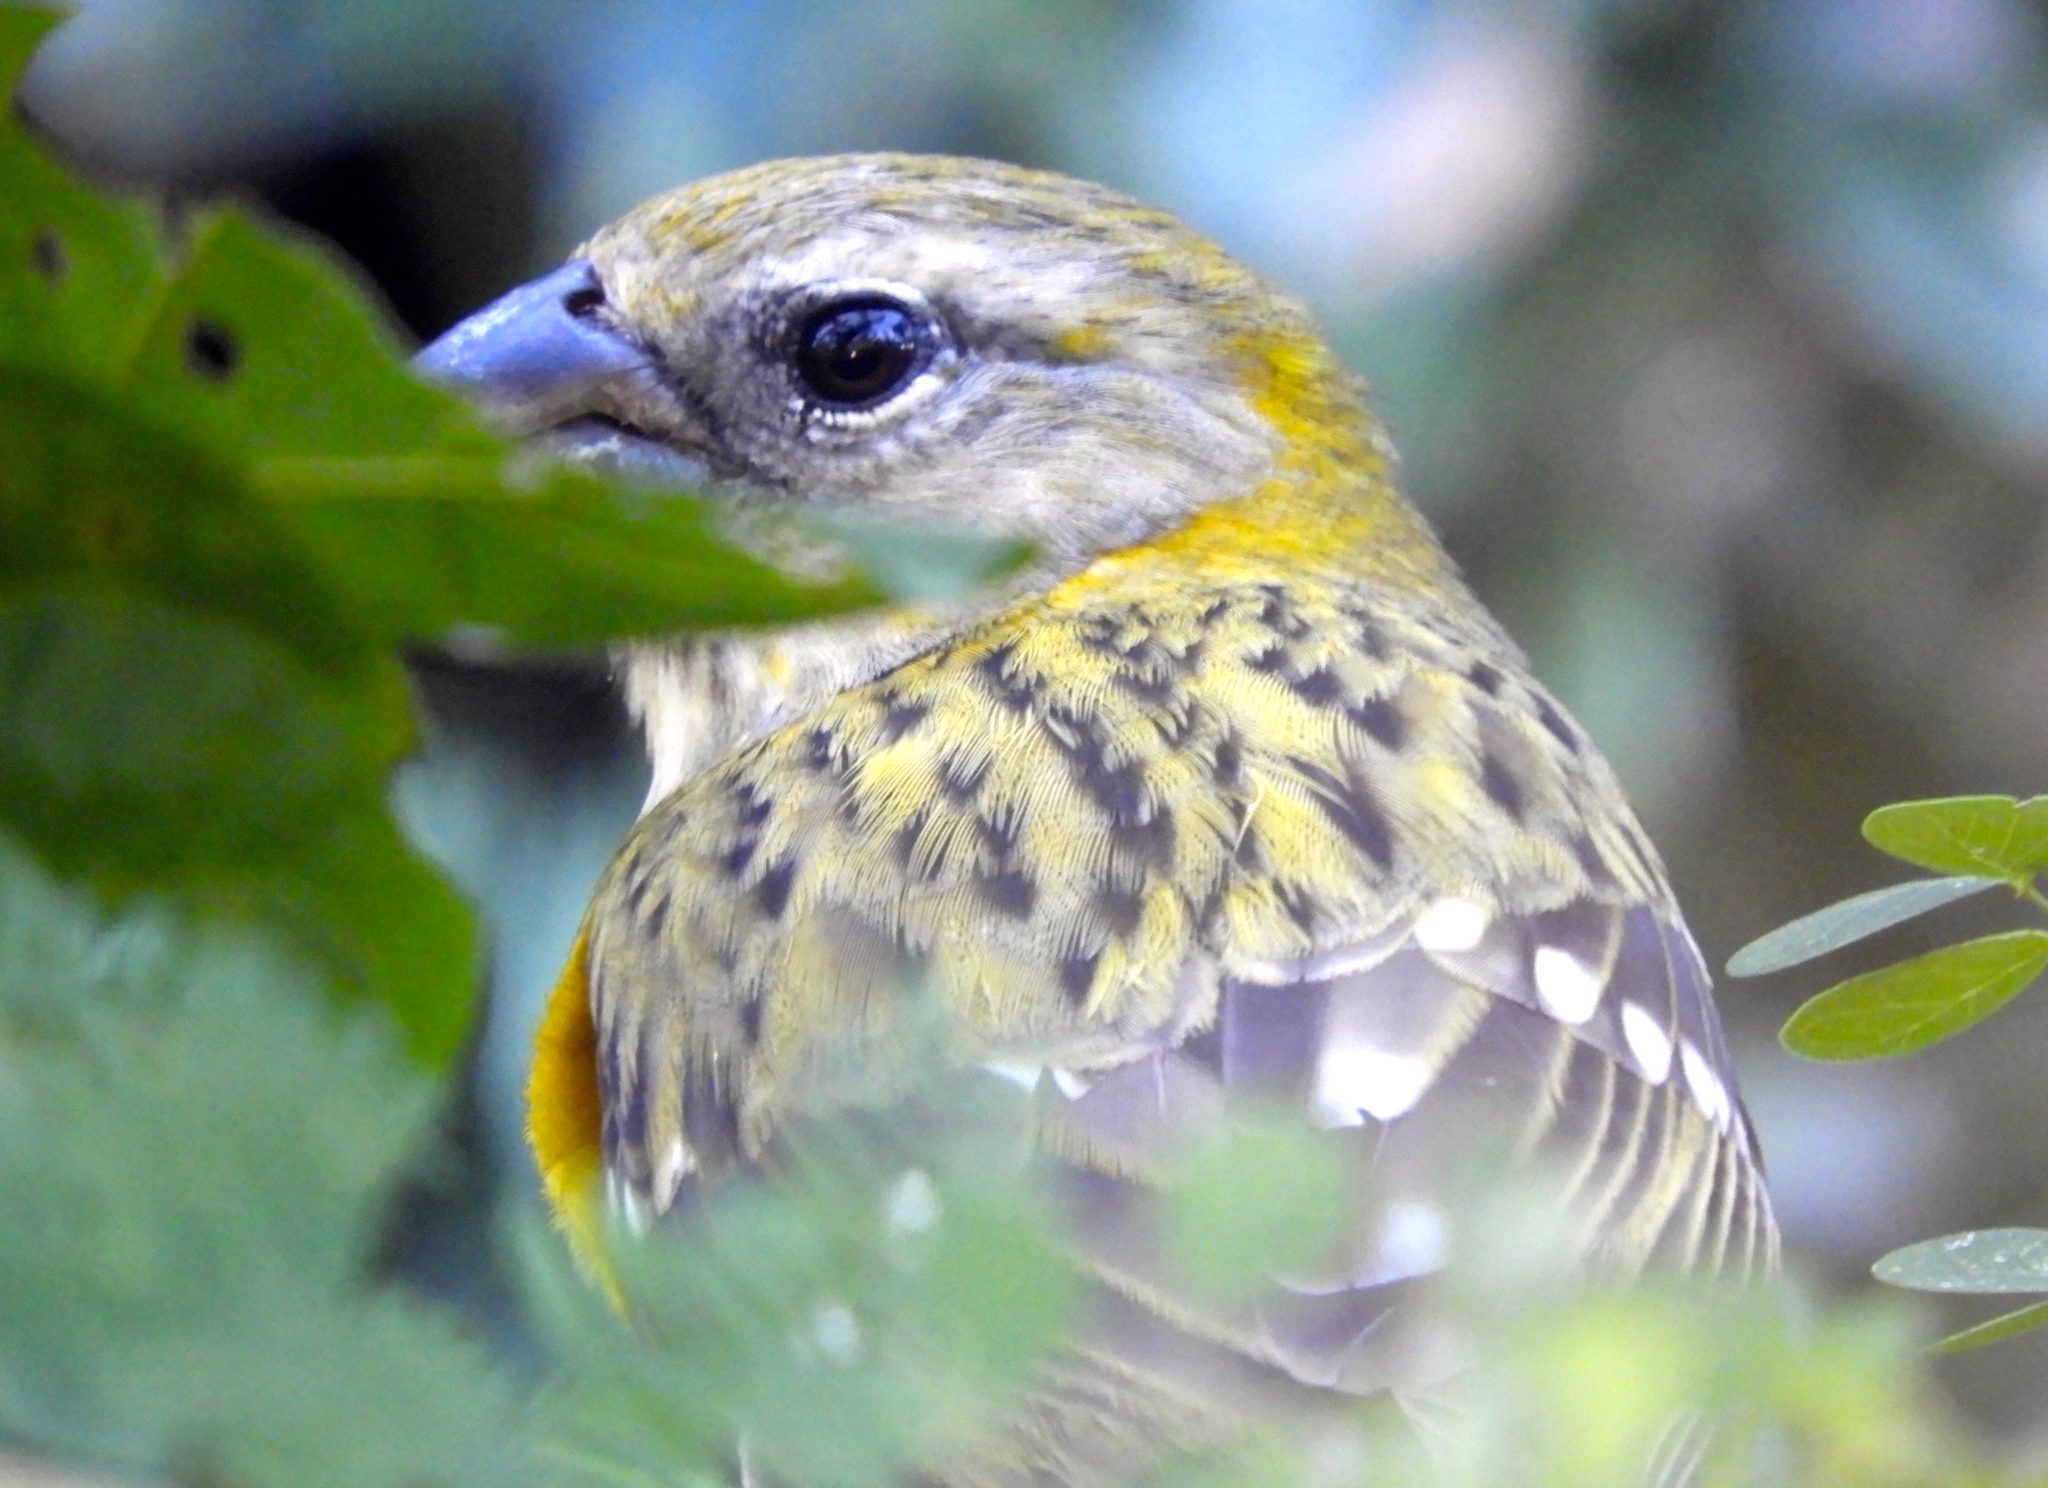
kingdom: Animalia
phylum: Chordata
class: Aves
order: Passeriformes
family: Cardinalidae
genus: Pheucticus
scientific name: Pheucticus chrysopeplus
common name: Yellow grosbeak
